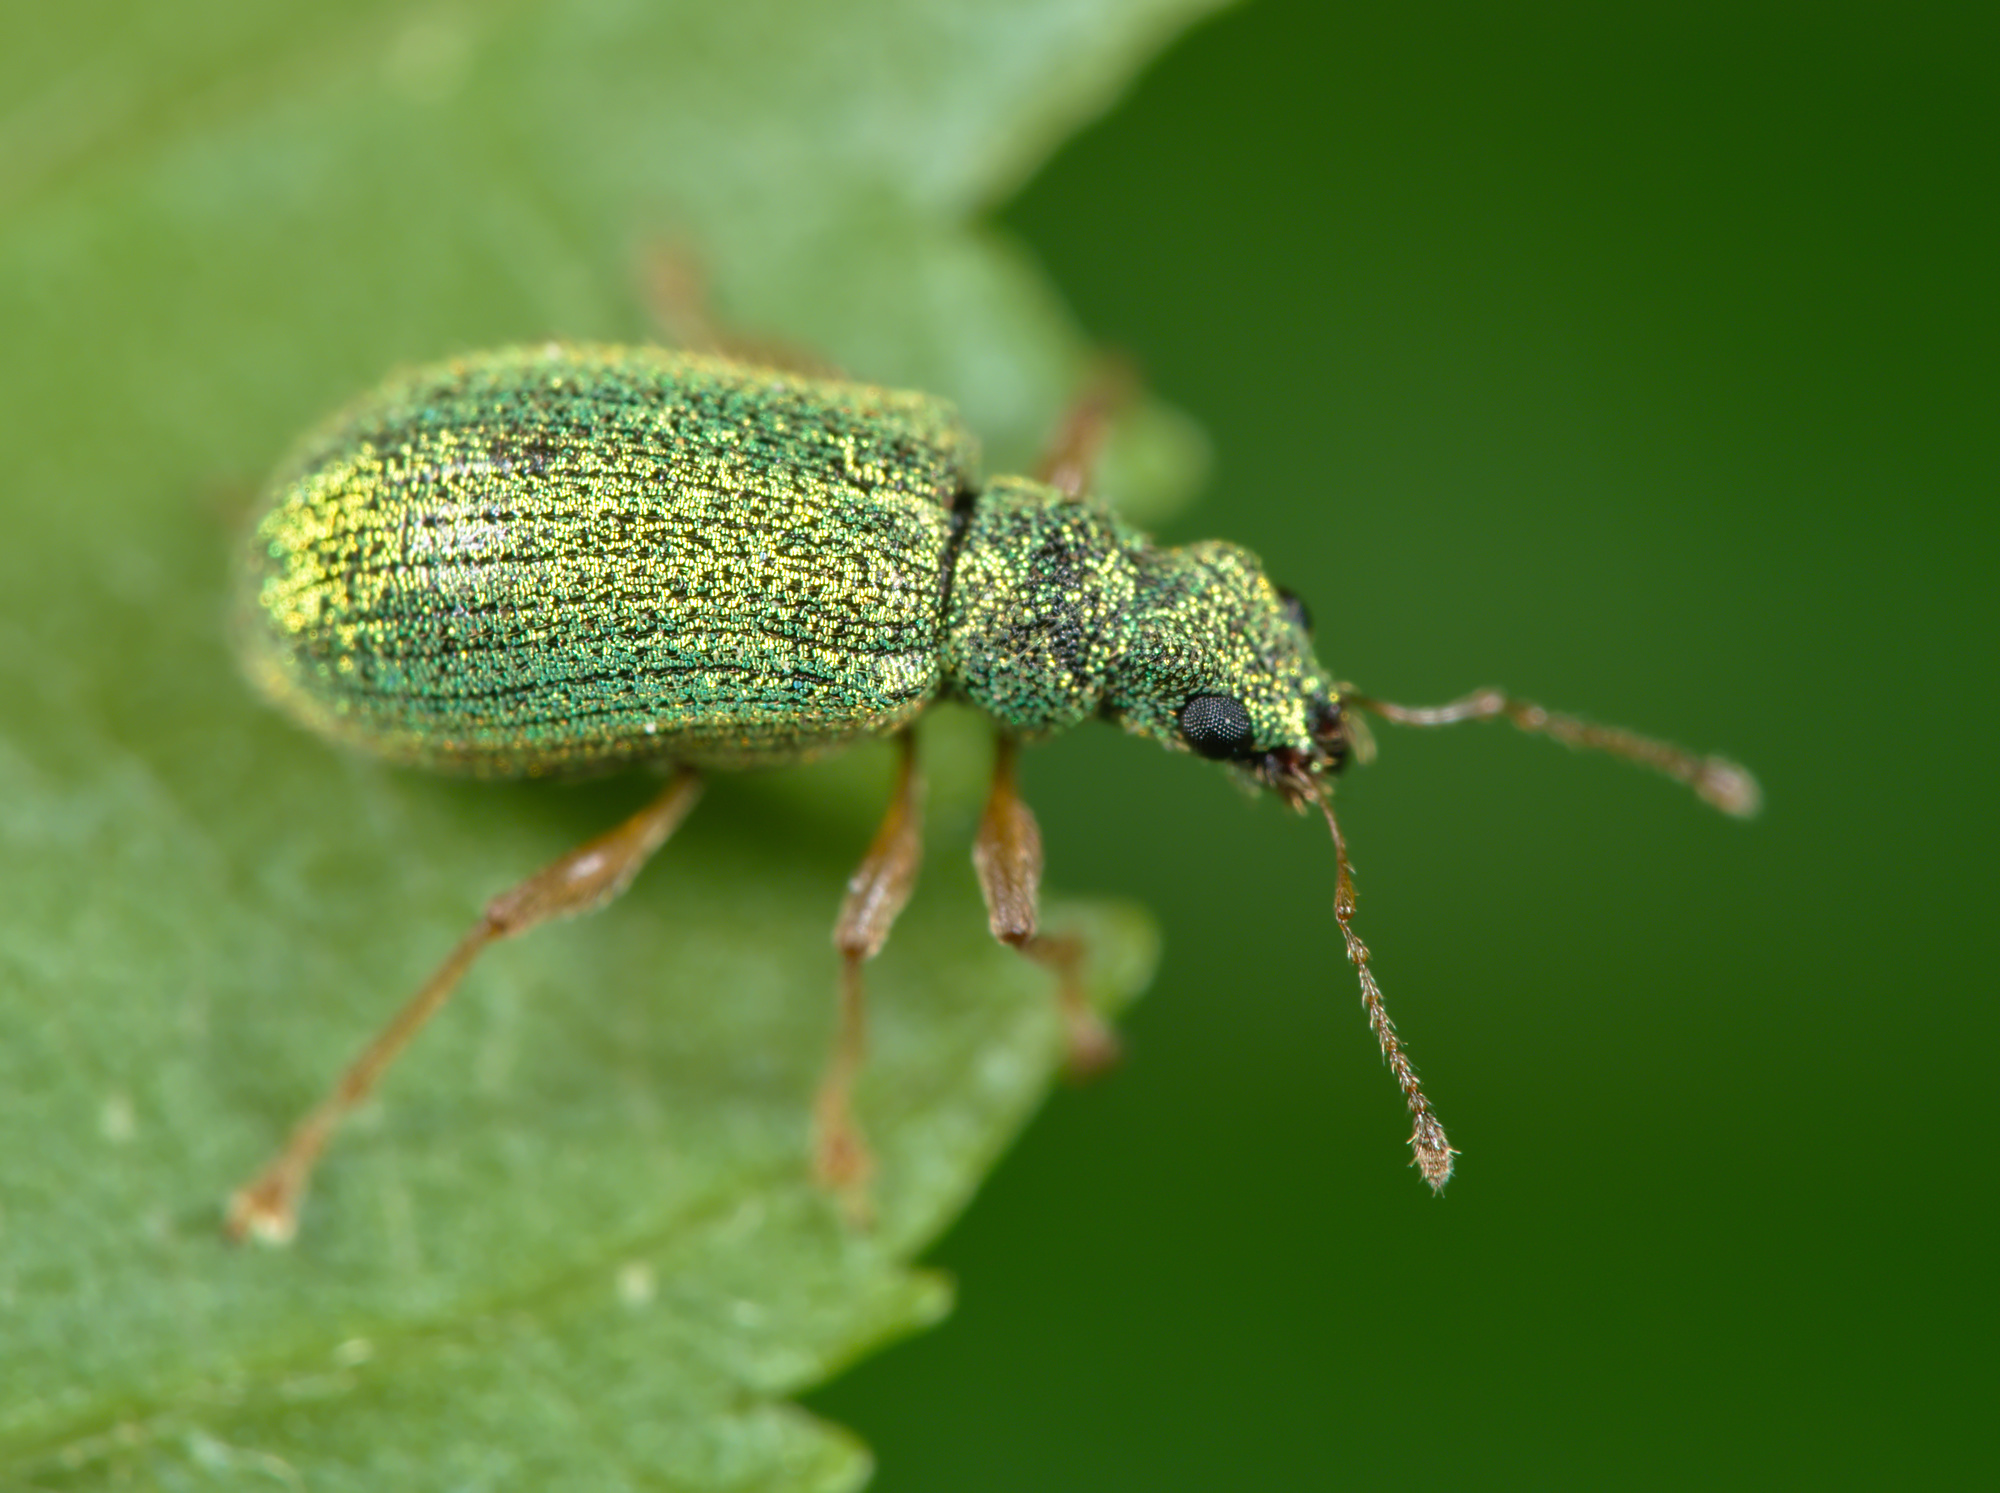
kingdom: Animalia
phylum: Arthropoda
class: Insecta
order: Coleoptera
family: Curculionidae
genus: Polydrusus
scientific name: Polydrusus pterygomalis
